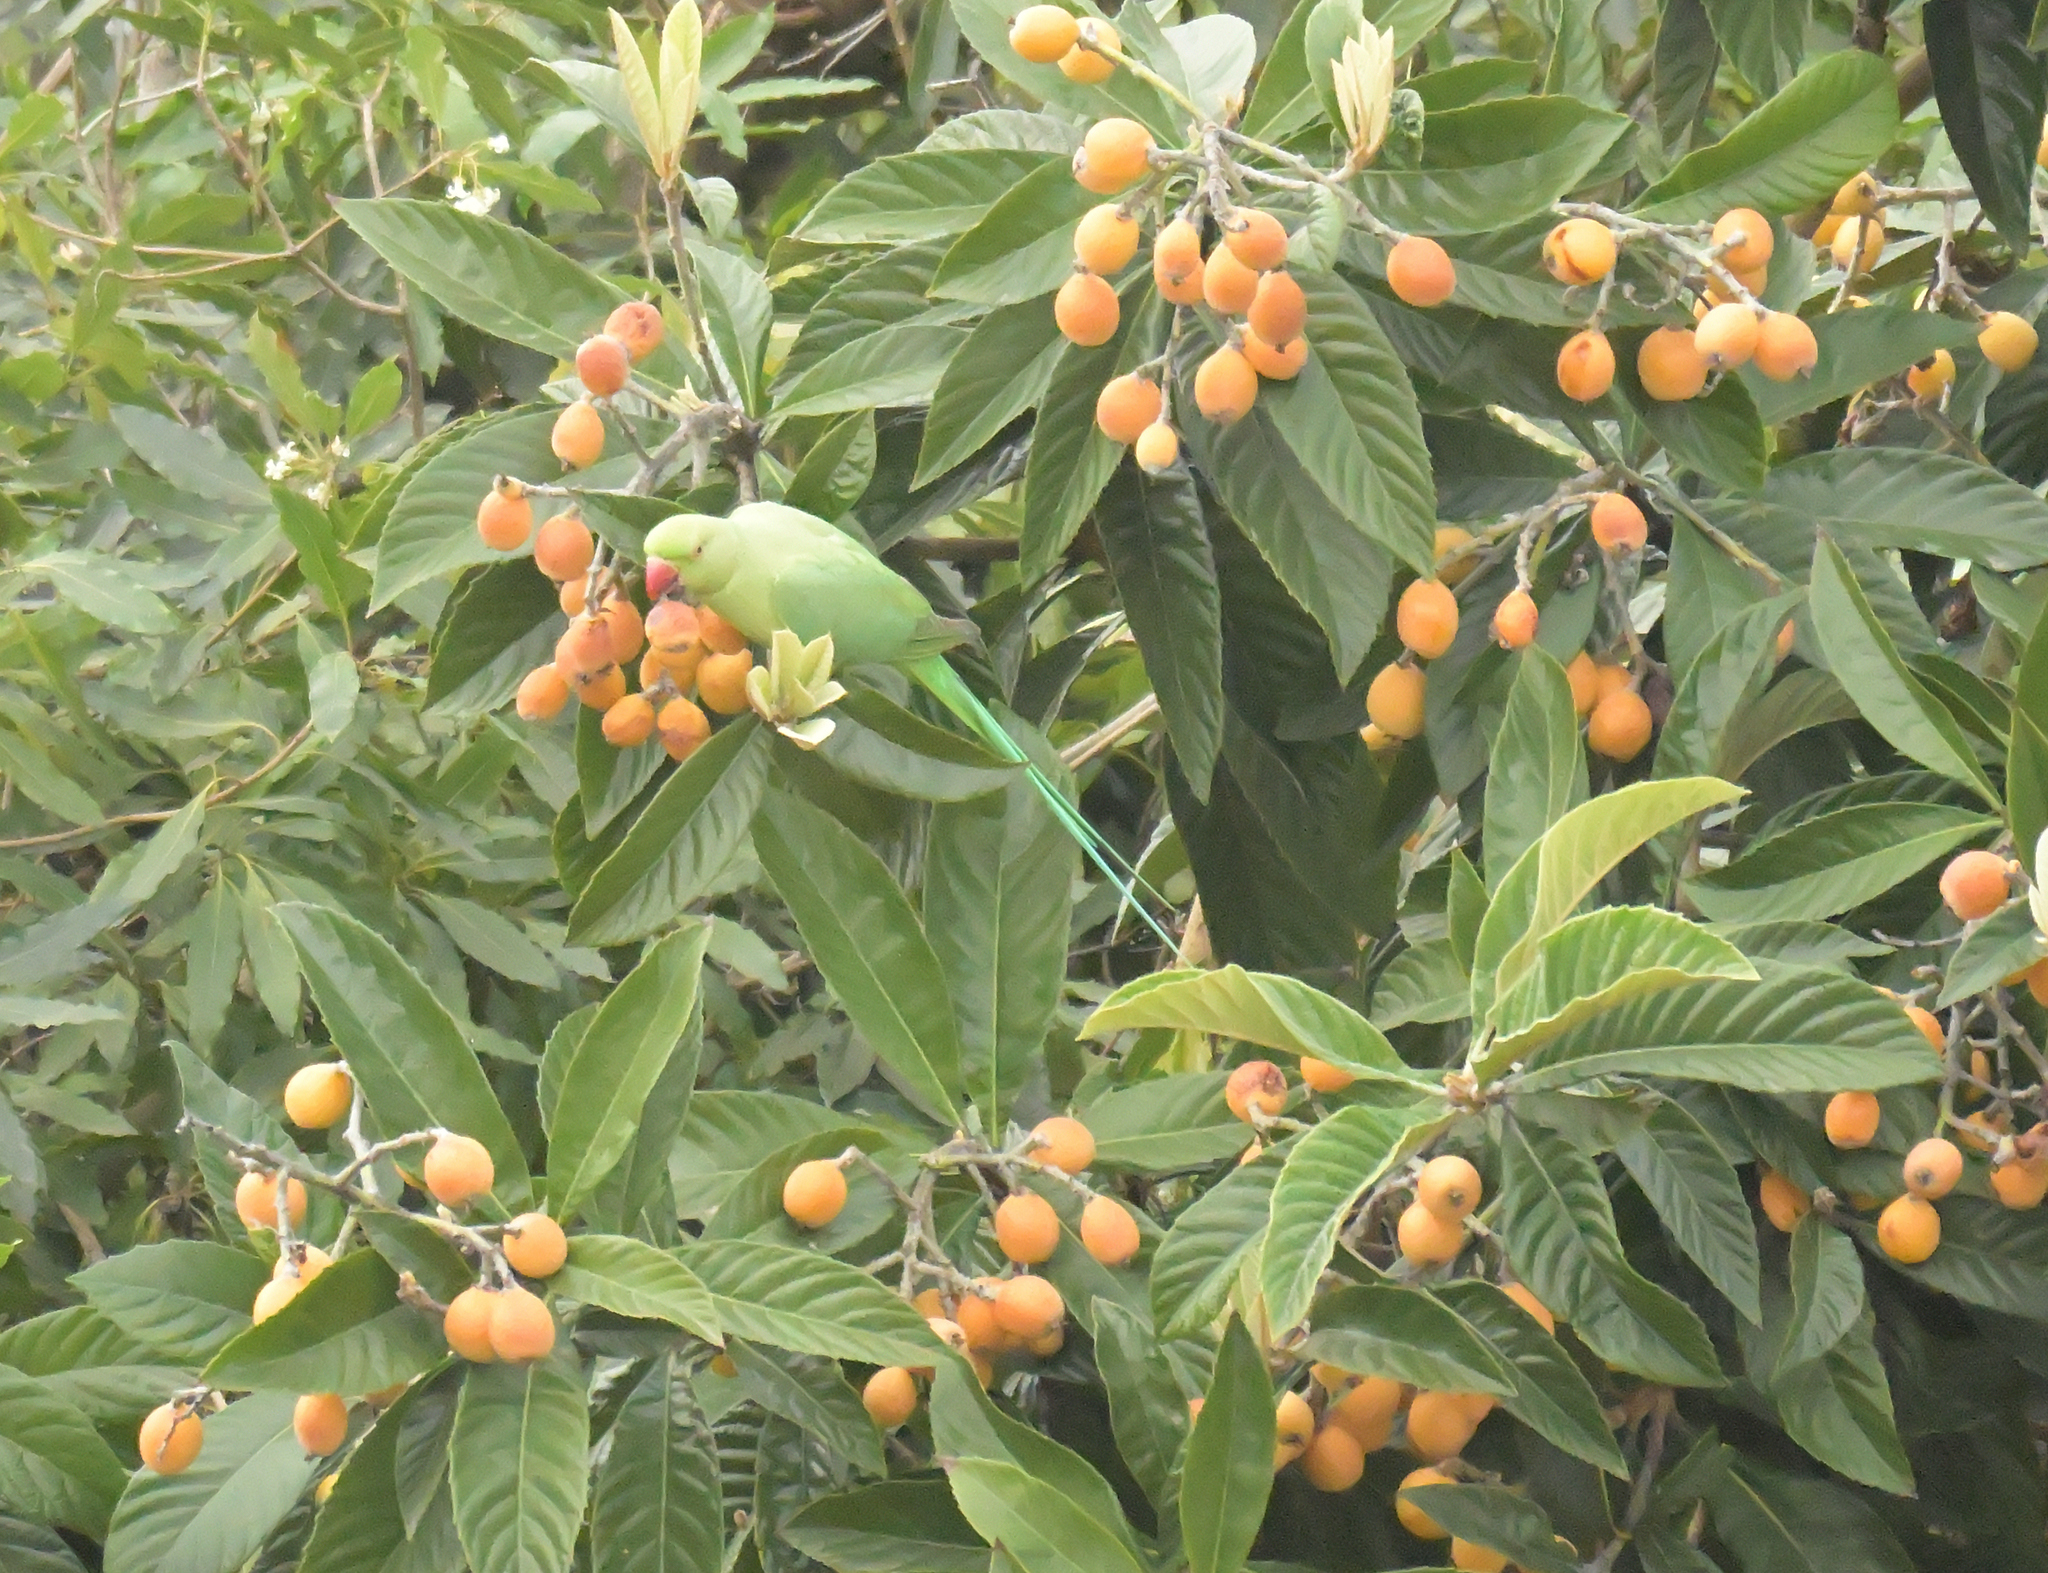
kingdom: Animalia
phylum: Chordata
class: Aves
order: Psittaciformes
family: Psittacidae
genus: Psittacula
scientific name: Psittacula krameri
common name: Rose-ringed parakeet
